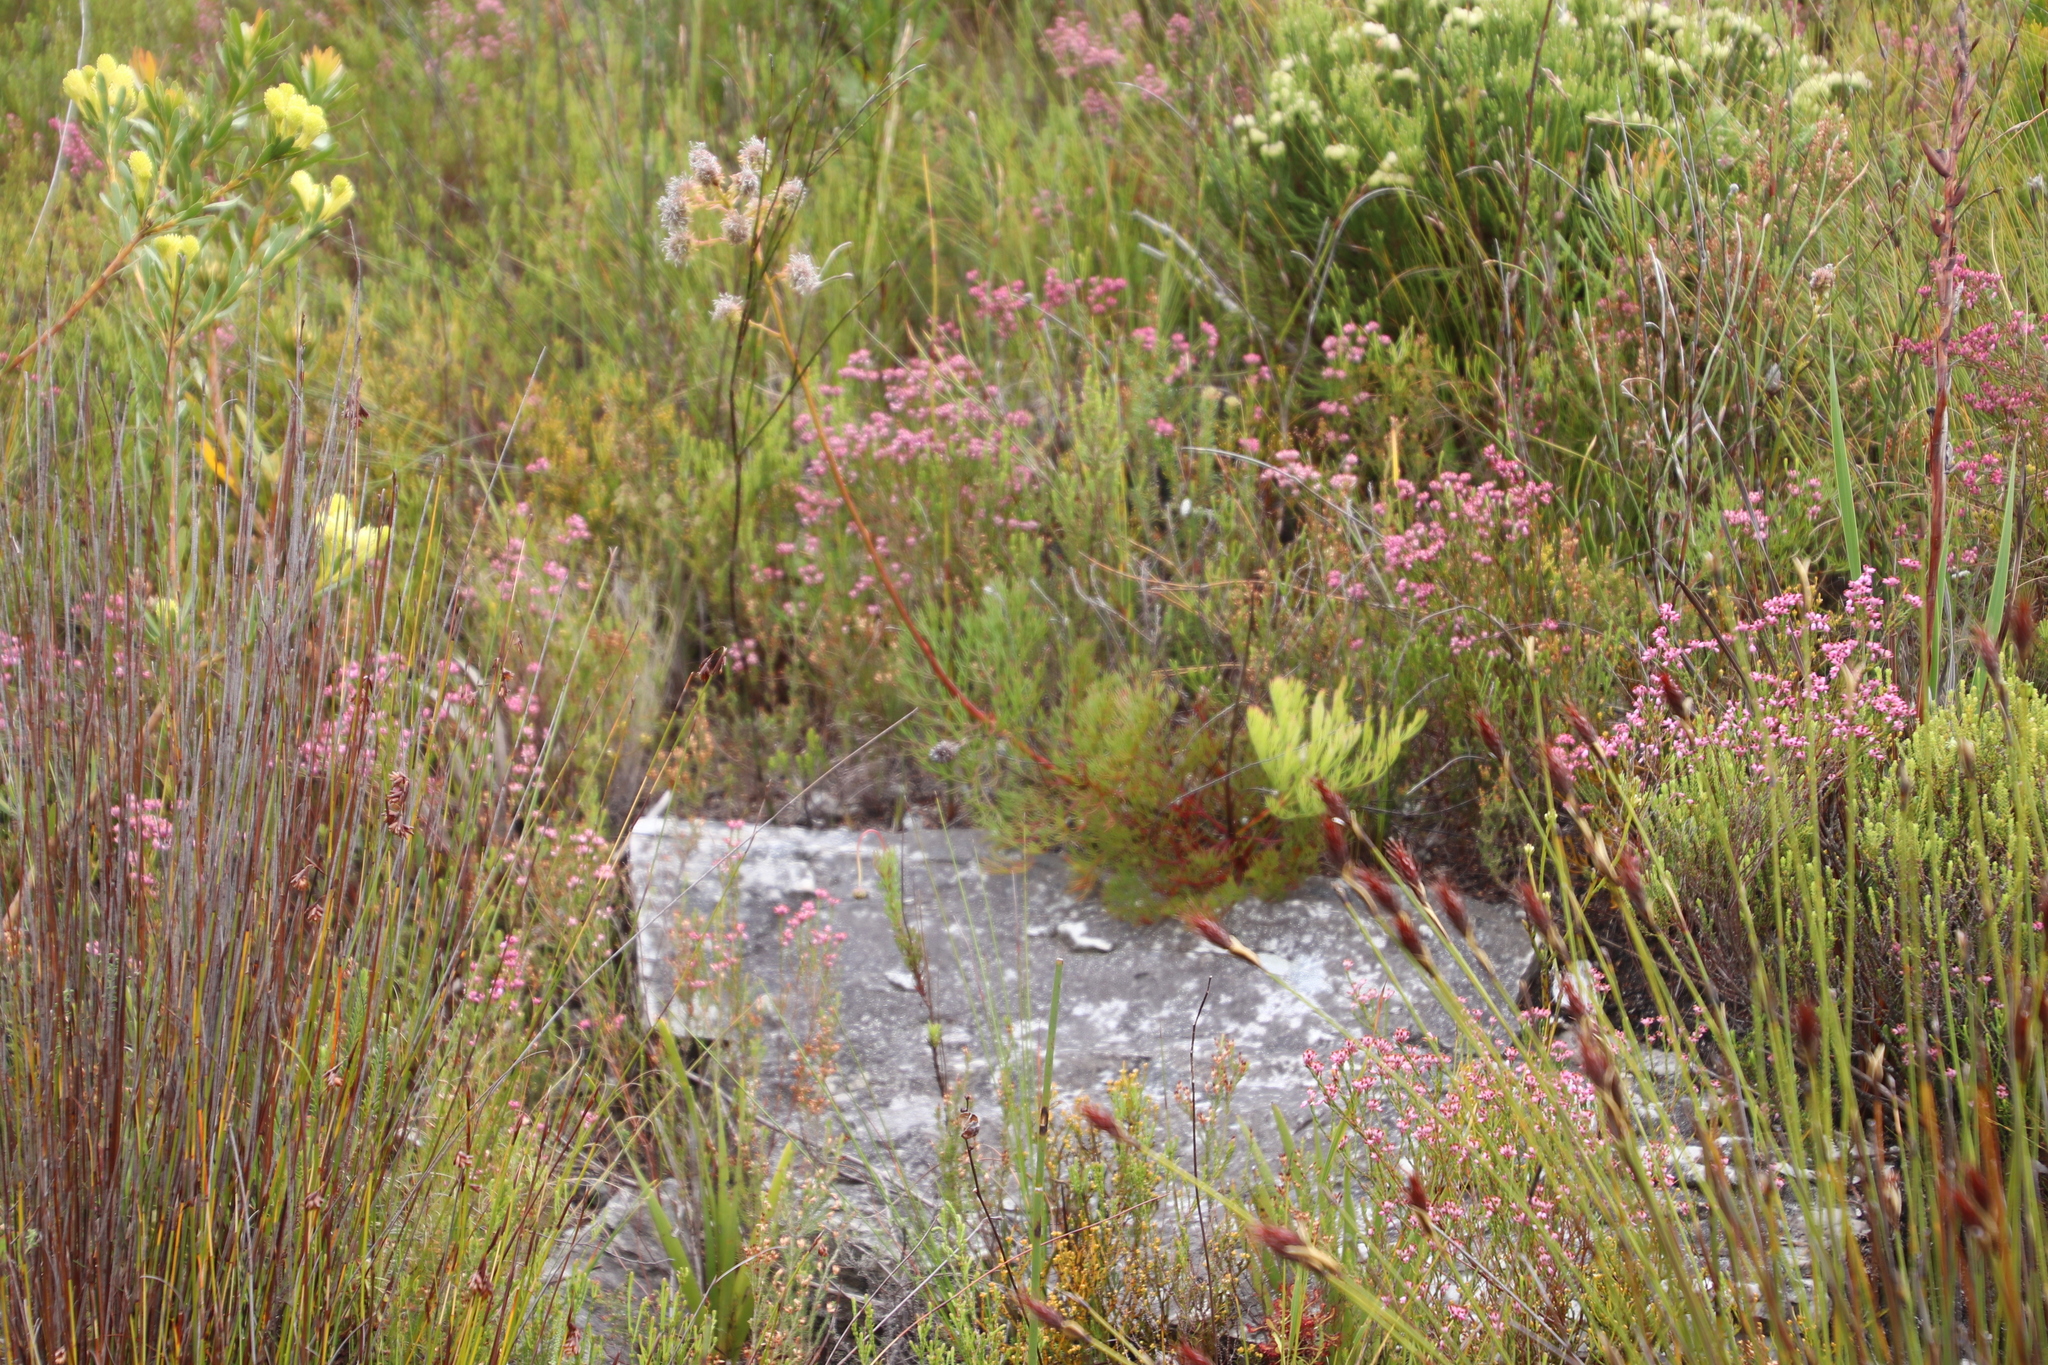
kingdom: Plantae
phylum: Tracheophyta
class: Magnoliopsida
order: Proteales
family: Proteaceae
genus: Serruria
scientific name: Serruria elongata
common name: Long-stalk spiderhead
